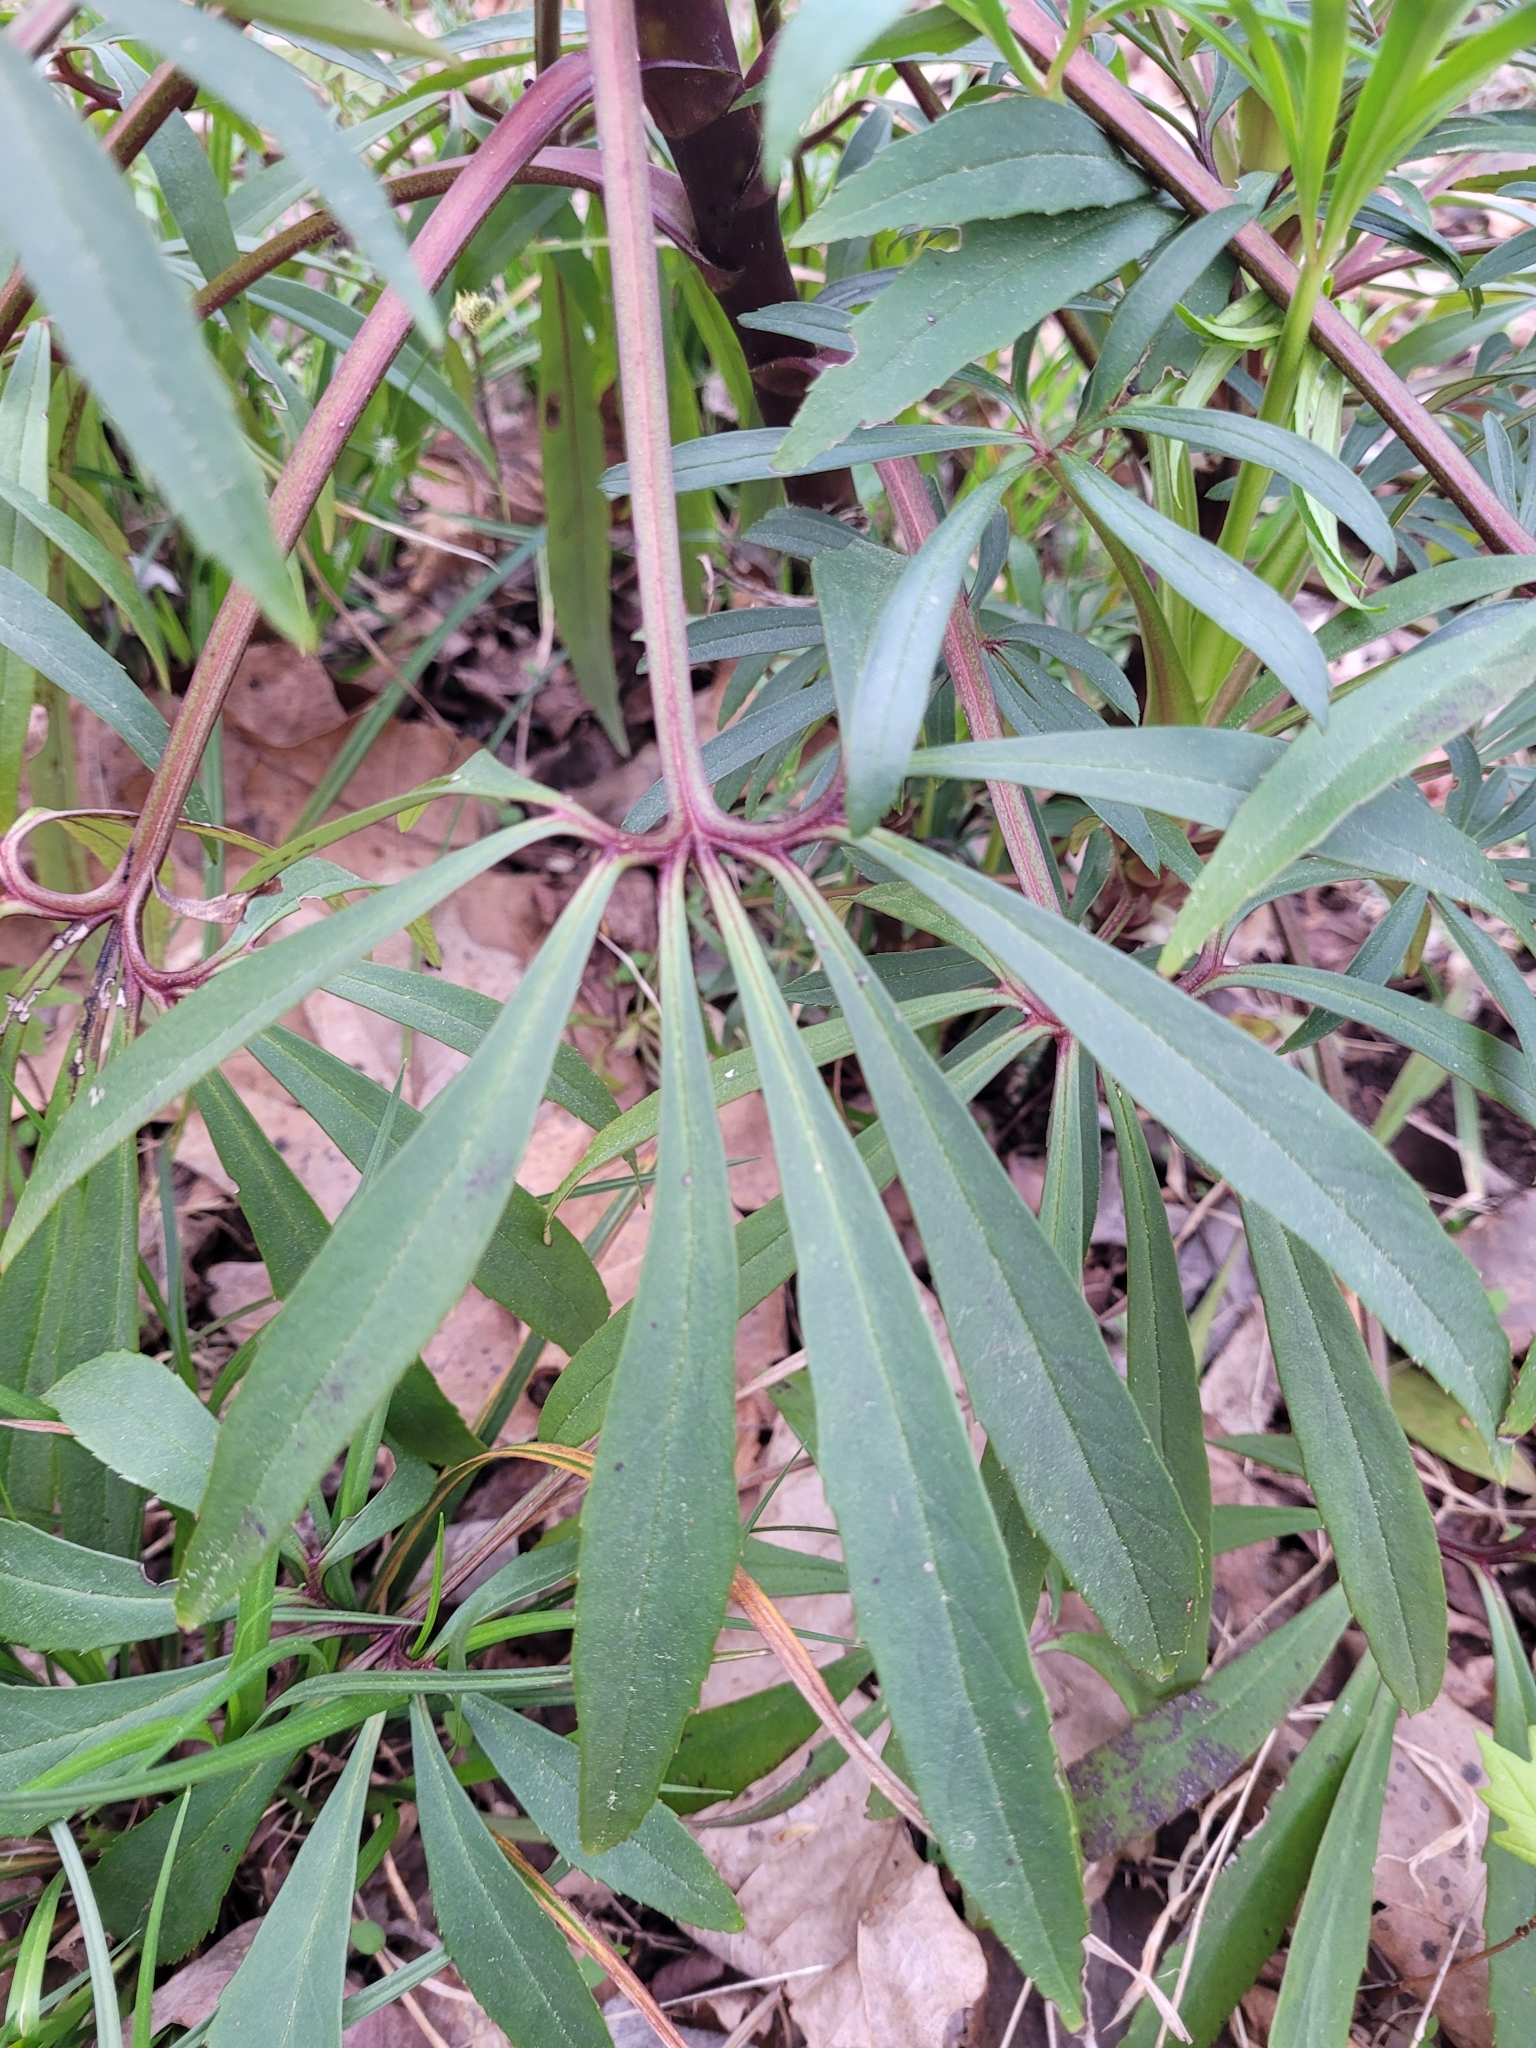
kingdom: Plantae
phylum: Tracheophyta
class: Magnoliopsida
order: Ranunculales
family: Ranunculaceae
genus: Helleborus
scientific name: Helleborus foetidus
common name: Stinking hellebore
